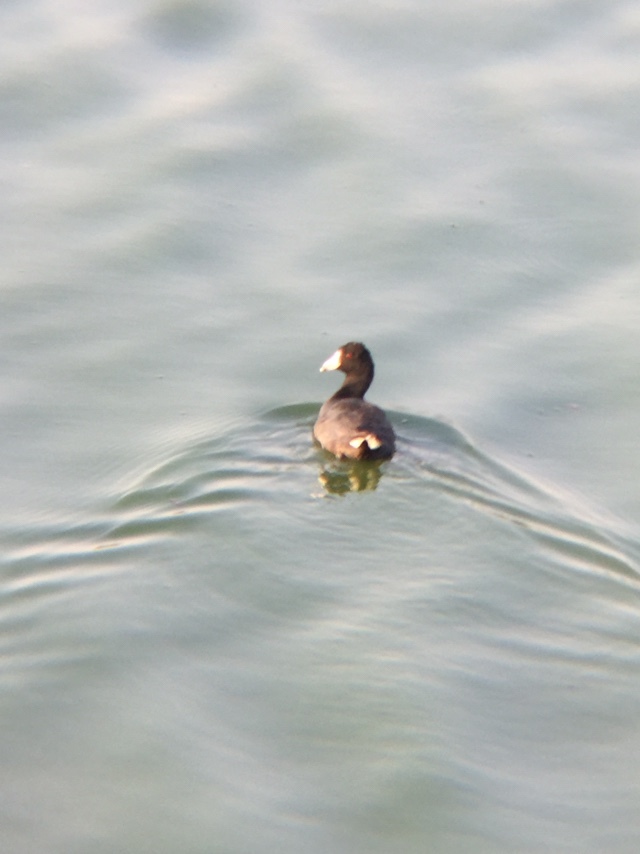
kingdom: Animalia
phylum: Chordata
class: Aves
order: Gruiformes
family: Rallidae
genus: Fulica
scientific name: Fulica americana
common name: American coot
